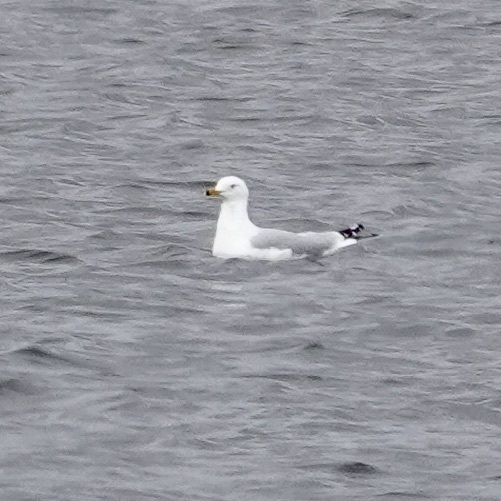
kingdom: Animalia
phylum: Chordata
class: Aves
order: Charadriiformes
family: Laridae
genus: Larus
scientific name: Larus delawarensis
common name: Ring-billed gull
